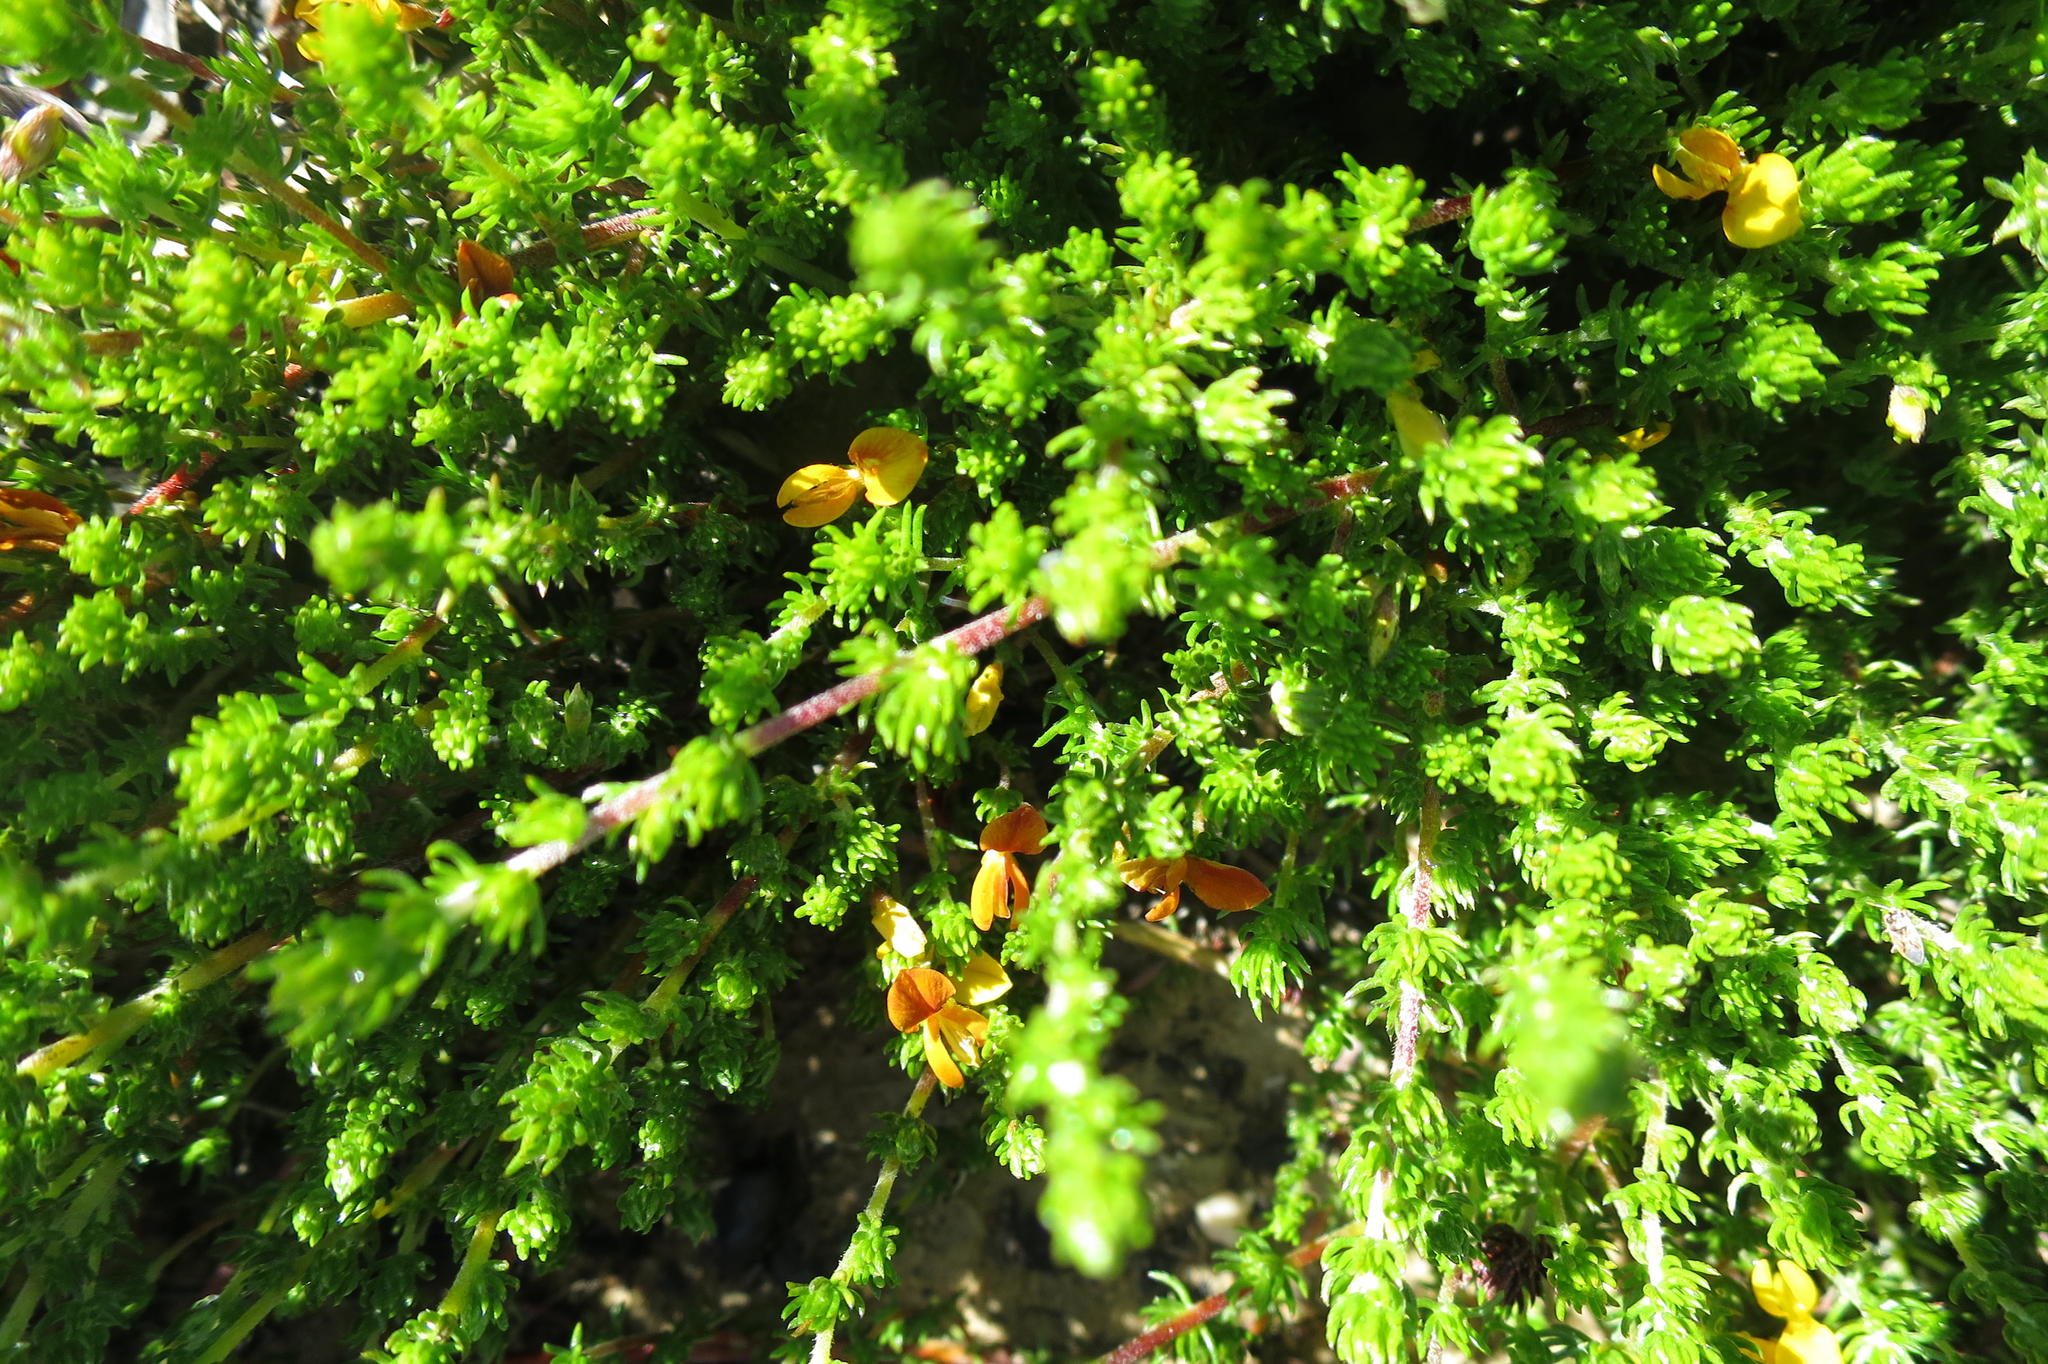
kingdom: Plantae
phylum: Tracheophyta
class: Magnoliopsida
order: Fabales
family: Fabaceae
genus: Aspalathus
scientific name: Aspalathus rubens
